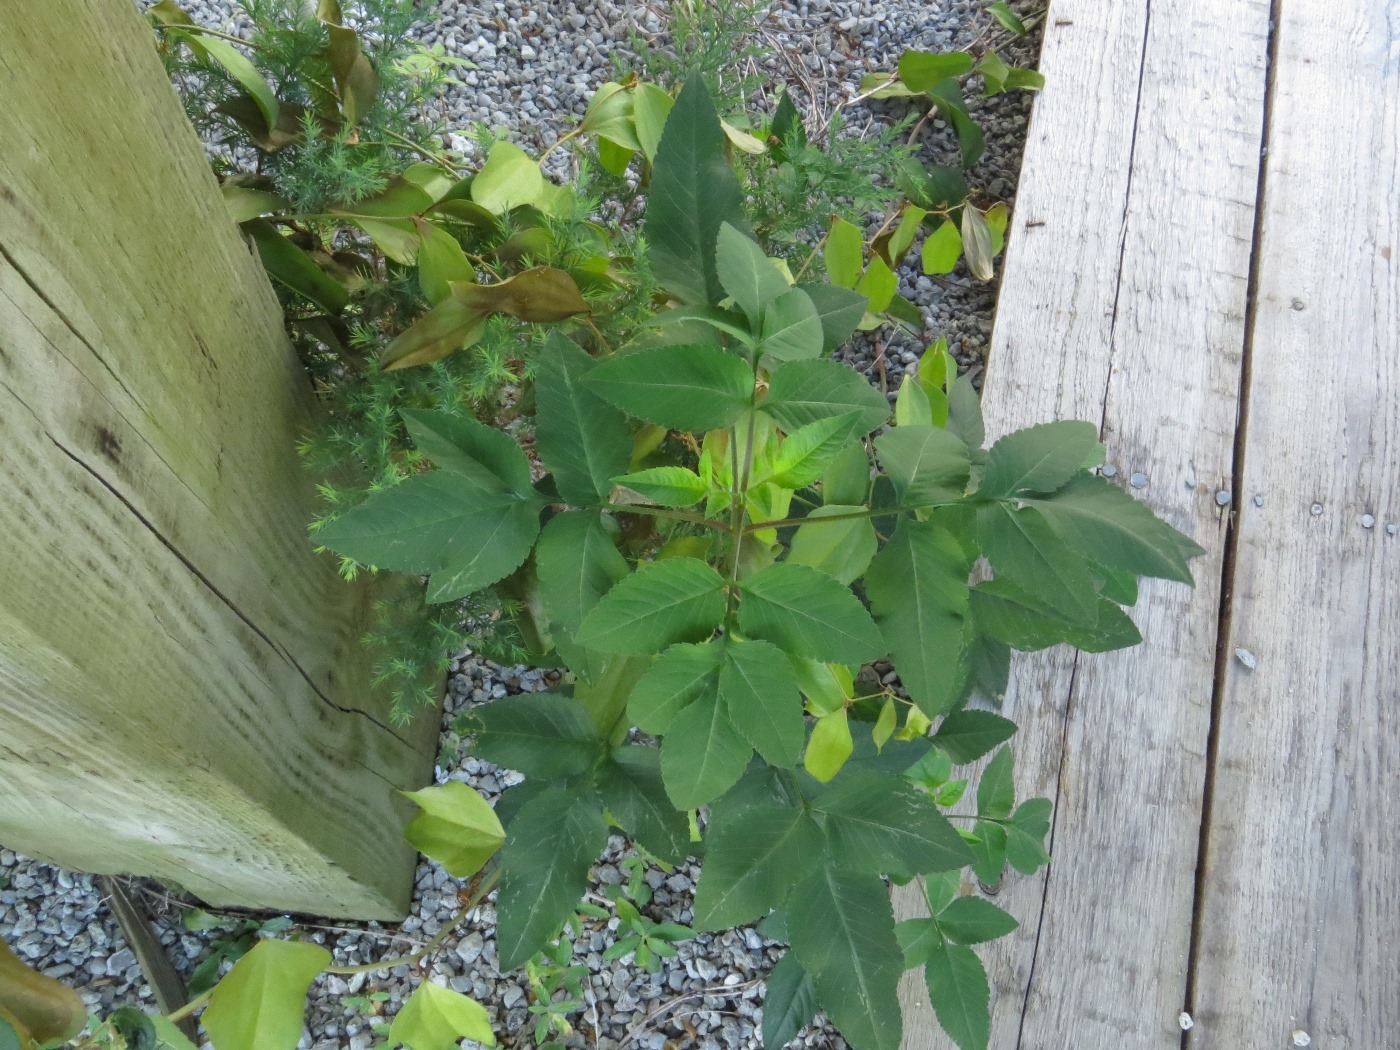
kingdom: Plantae
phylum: Tracheophyta
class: Magnoliopsida
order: Apiales
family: Apiaceae
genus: Aegopodium
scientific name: Aegopodium podagraria
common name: Ground-elder
